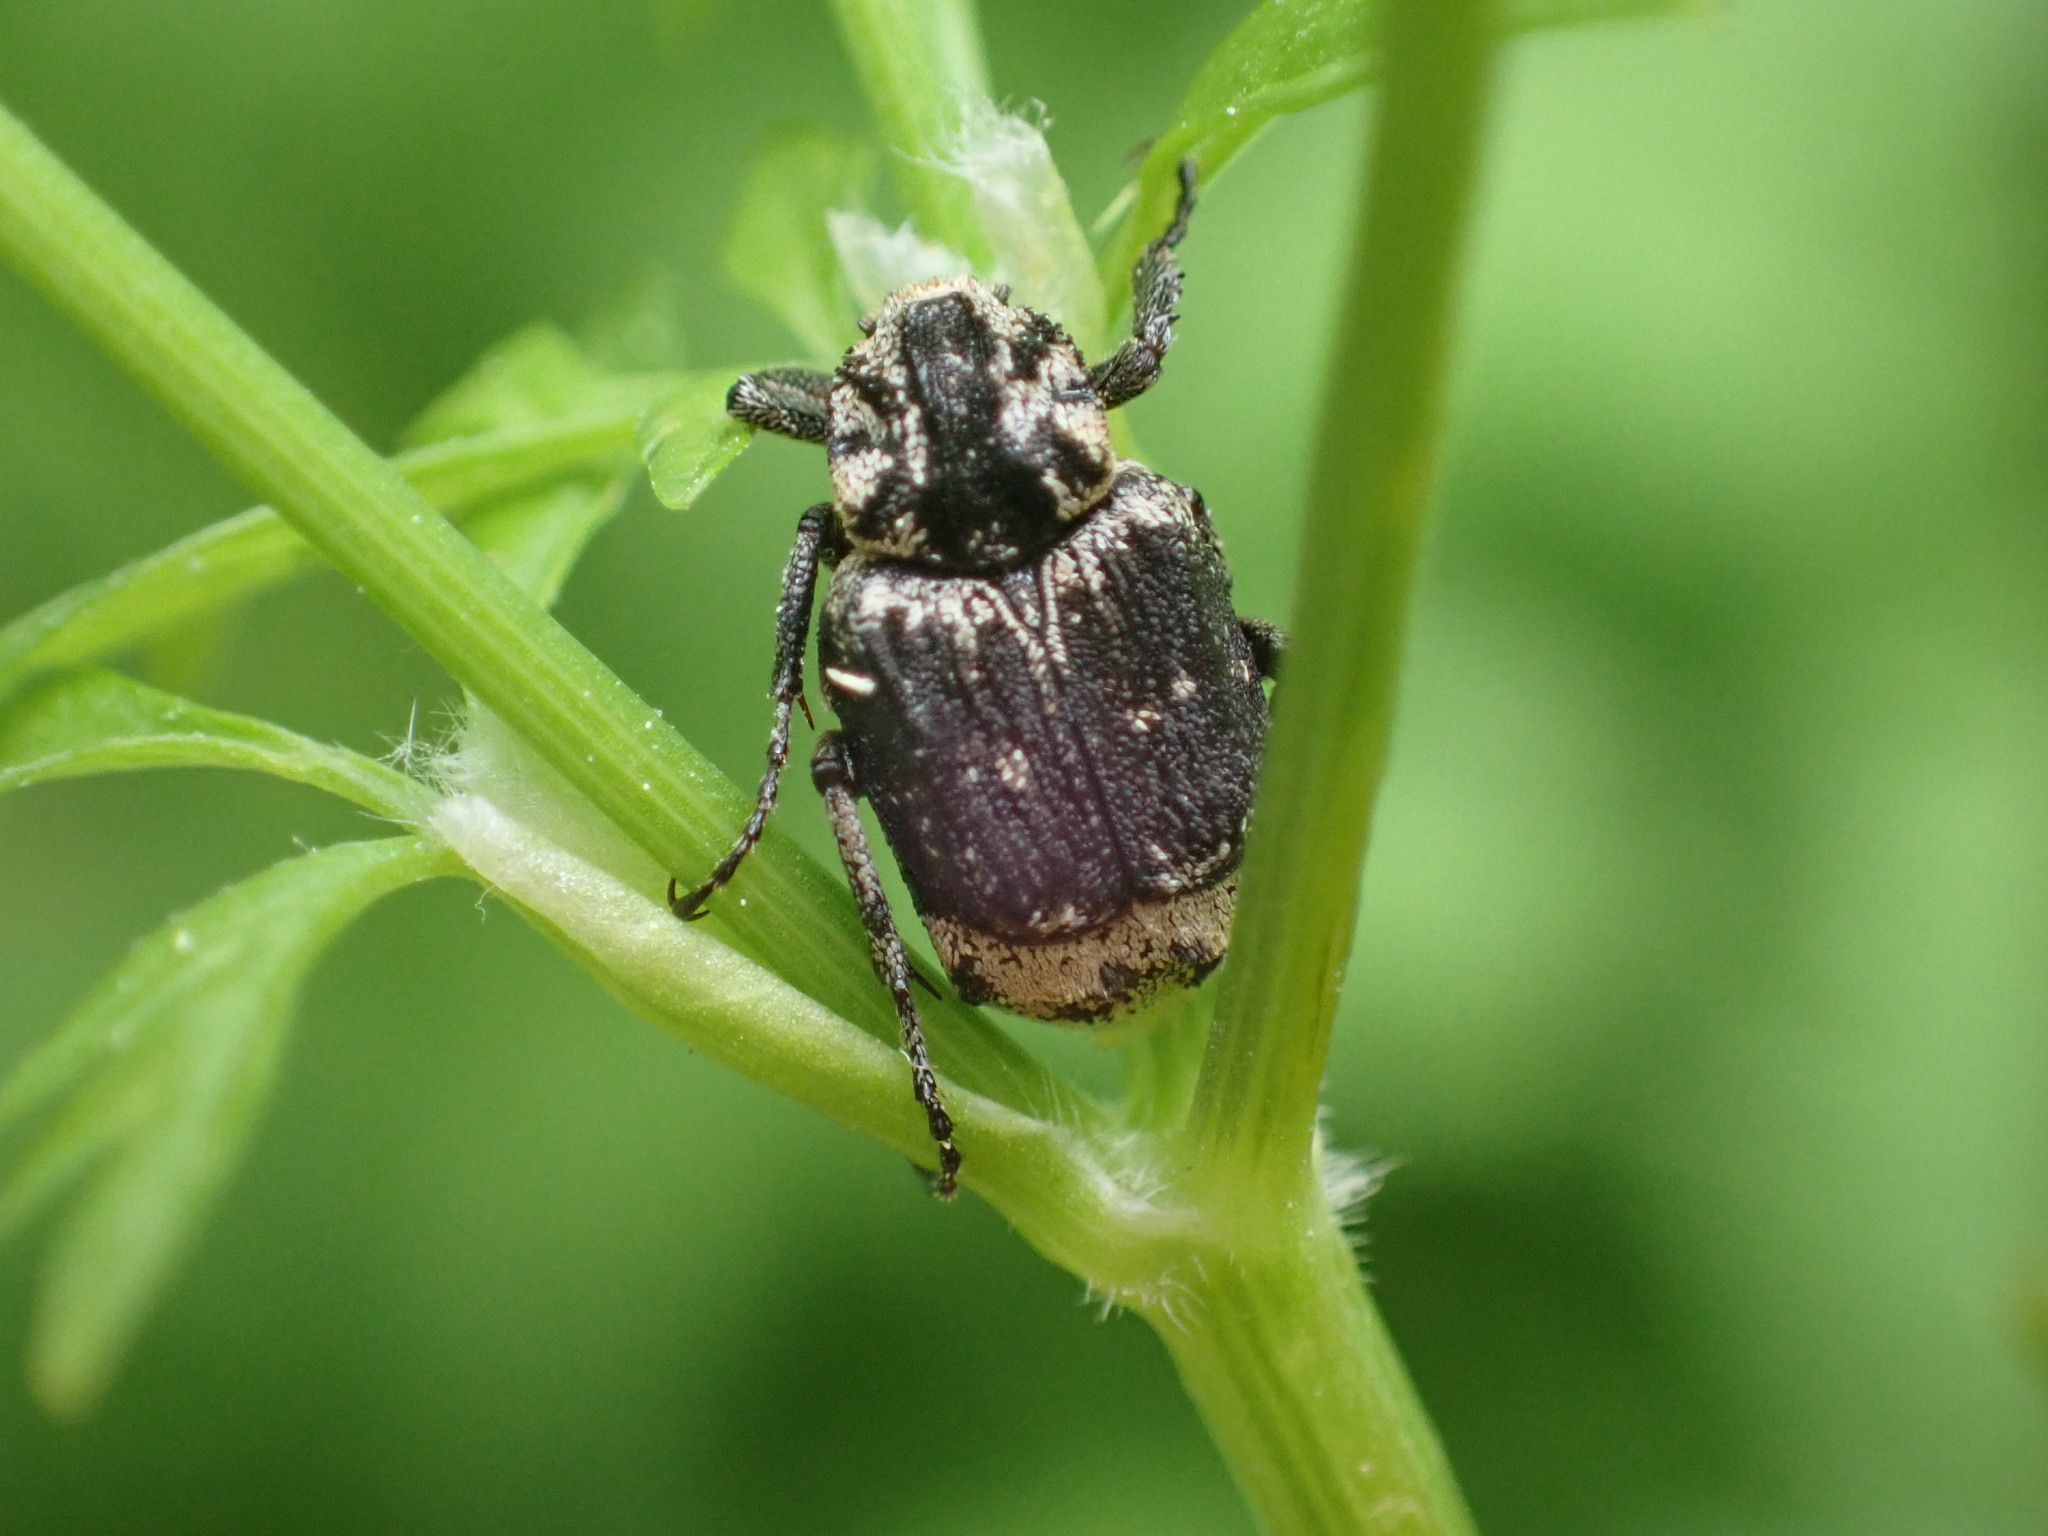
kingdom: Animalia
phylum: Arthropoda
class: Insecta
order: Coleoptera
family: Scarabaeidae
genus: Valgus
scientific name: Valgus hemipterus
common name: Bug flower chafer
